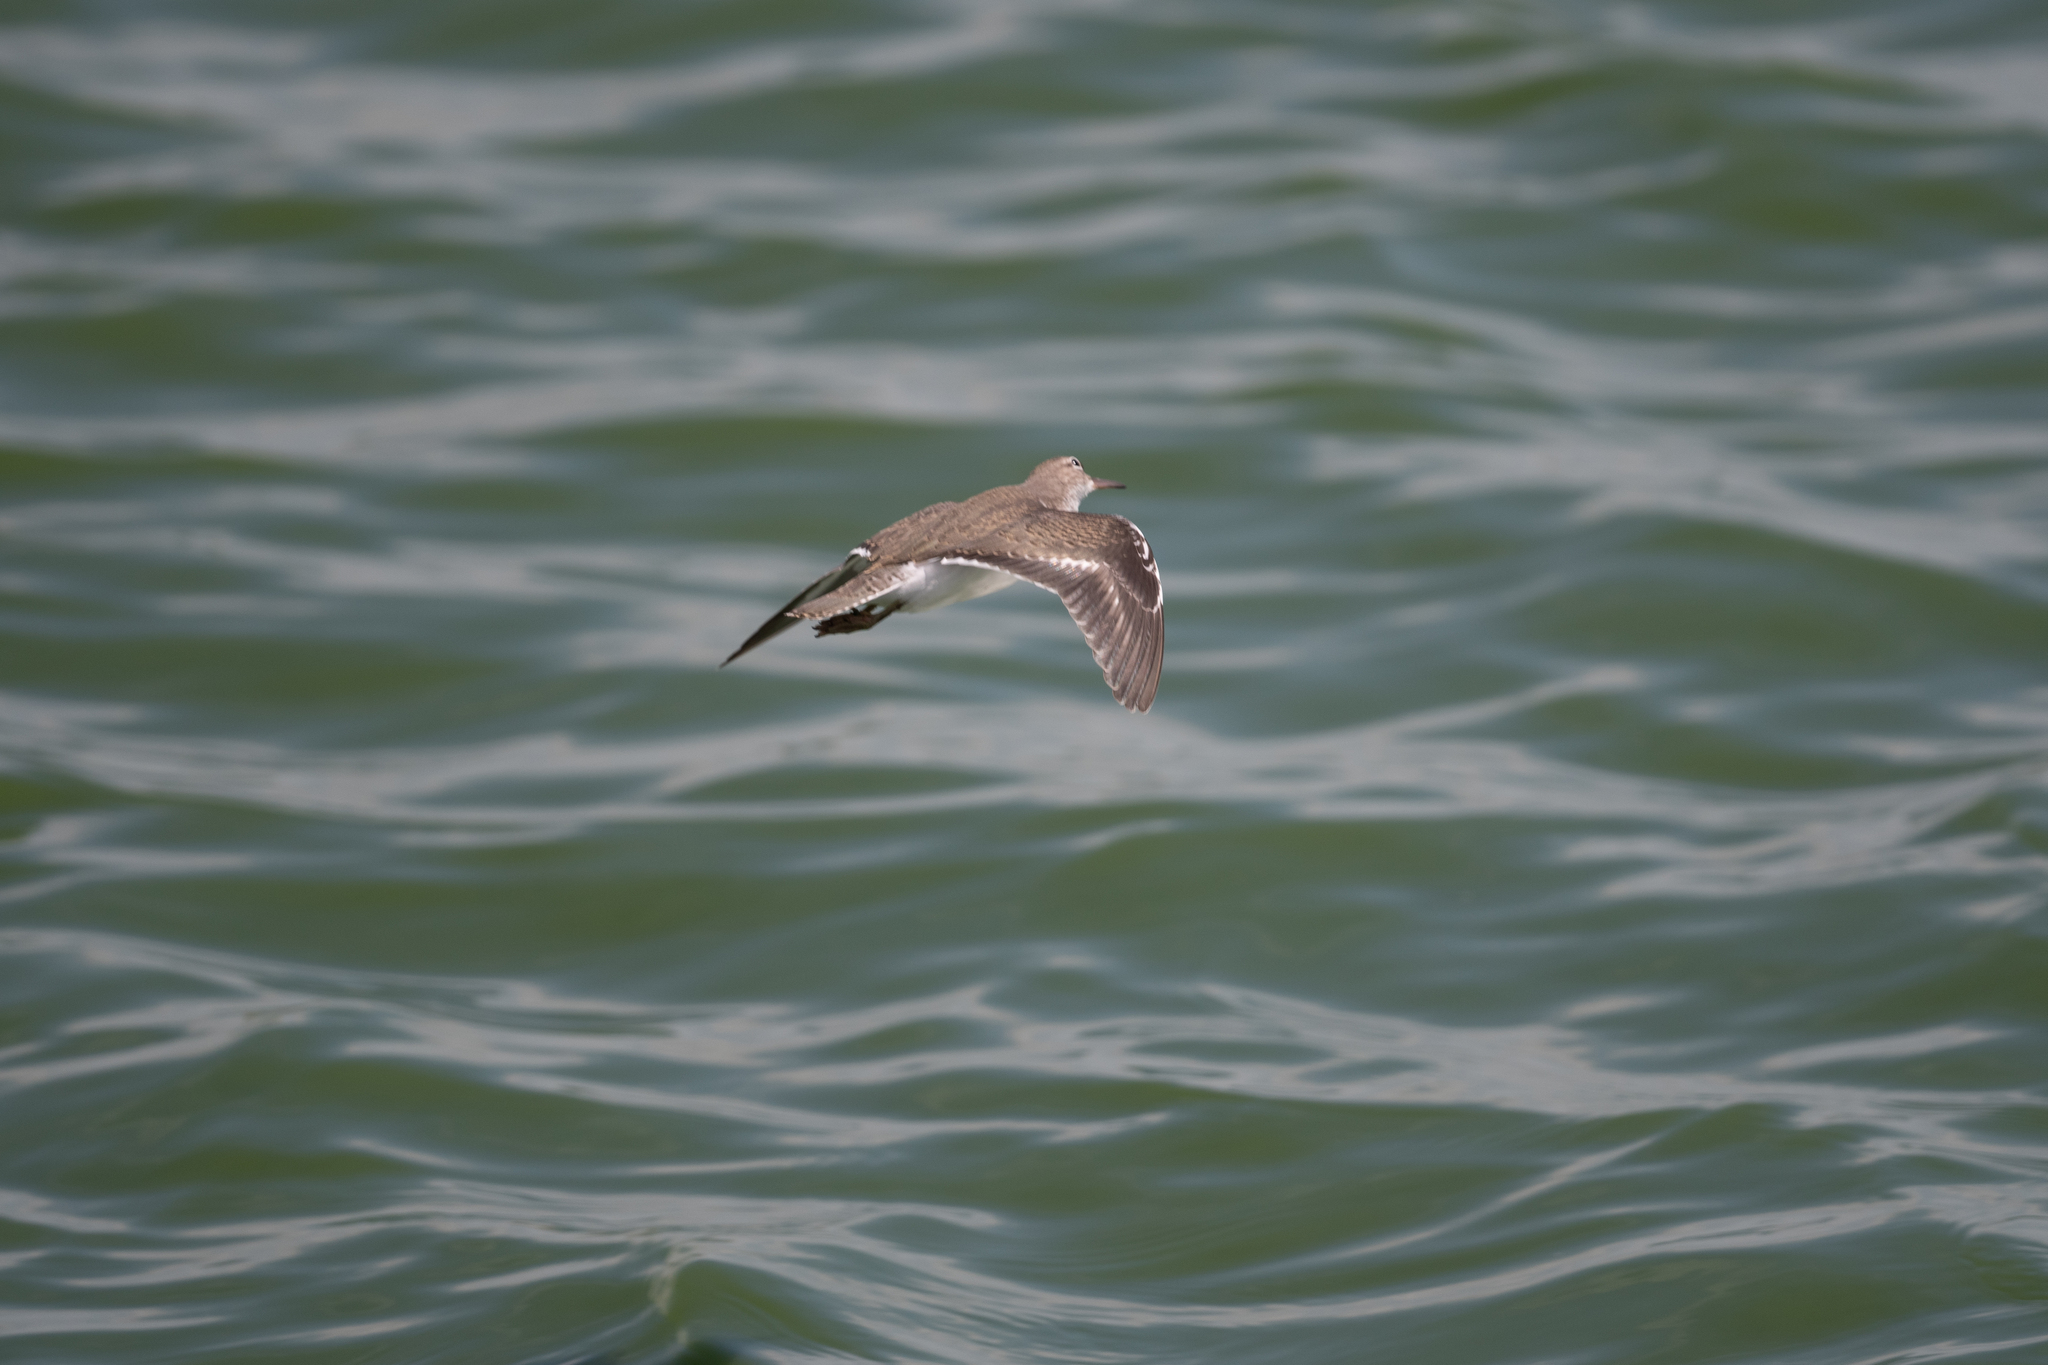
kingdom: Animalia
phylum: Chordata
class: Aves
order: Charadriiformes
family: Scolopacidae
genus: Actitis
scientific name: Actitis macularius
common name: Spotted sandpiper
